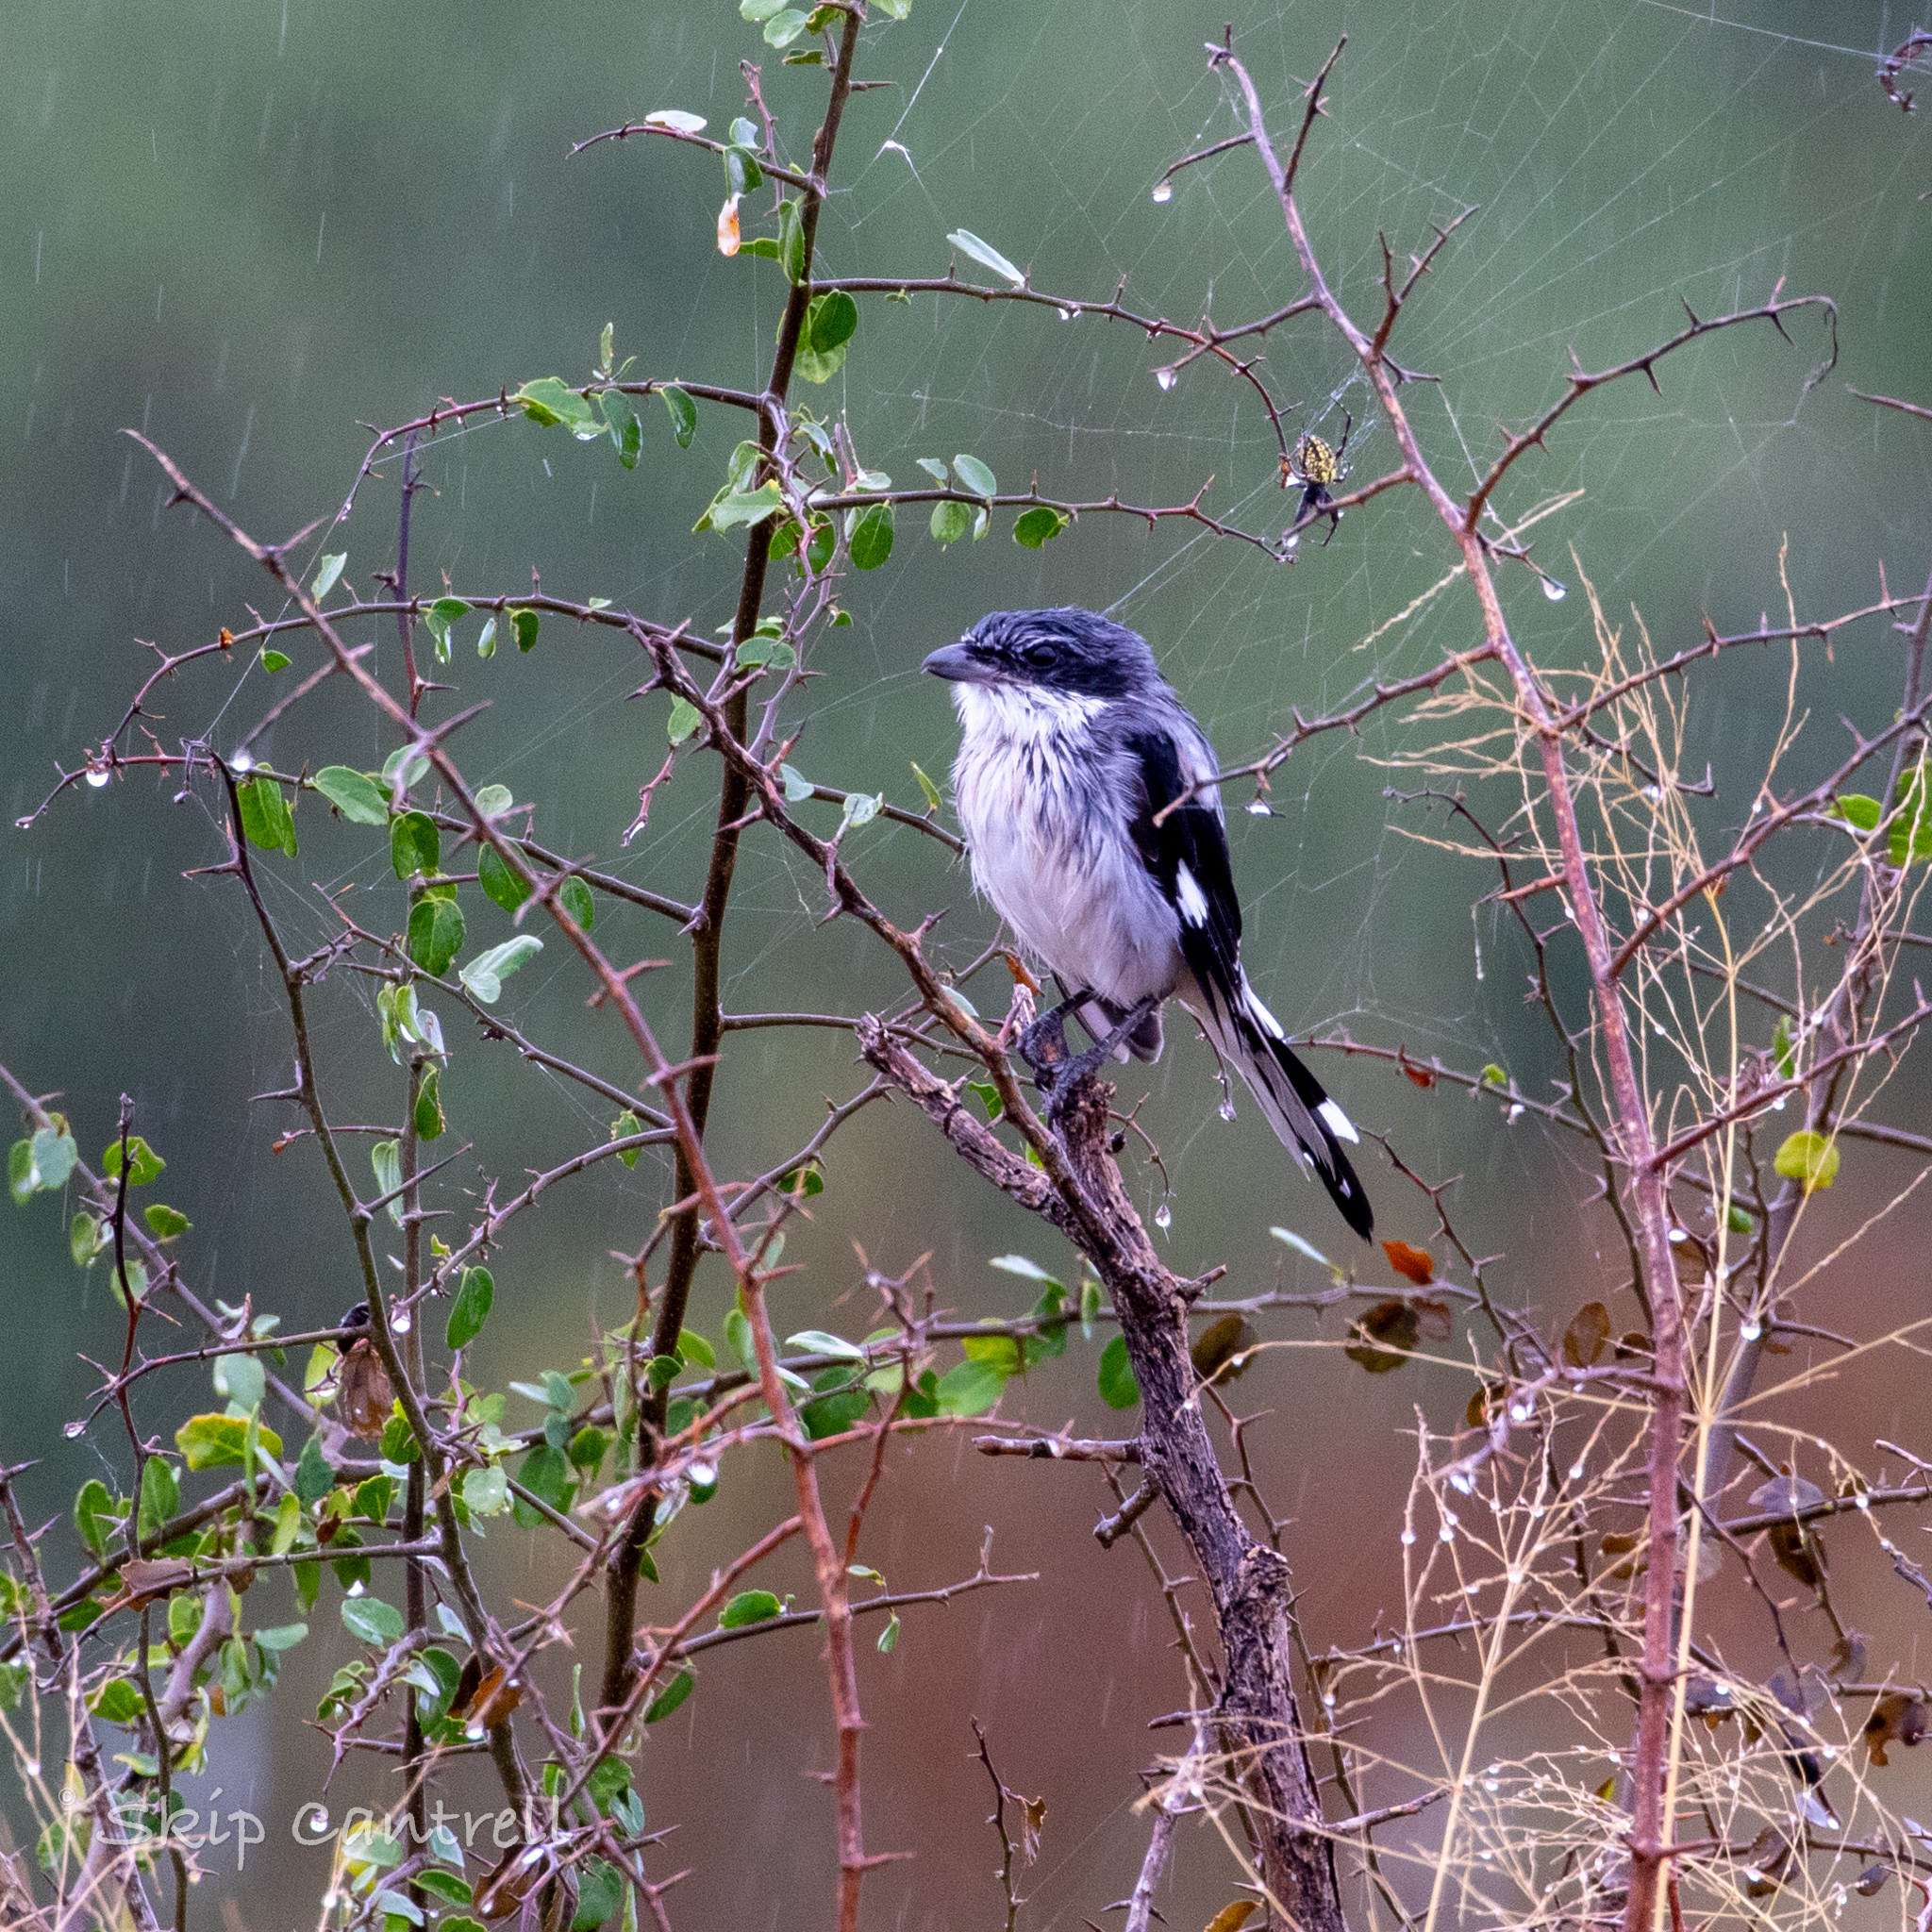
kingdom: Animalia
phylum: Chordata
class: Aves
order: Passeriformes
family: Laniidae
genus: Lanius
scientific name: Lanius ludovicianus
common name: Loggerhead shrike
